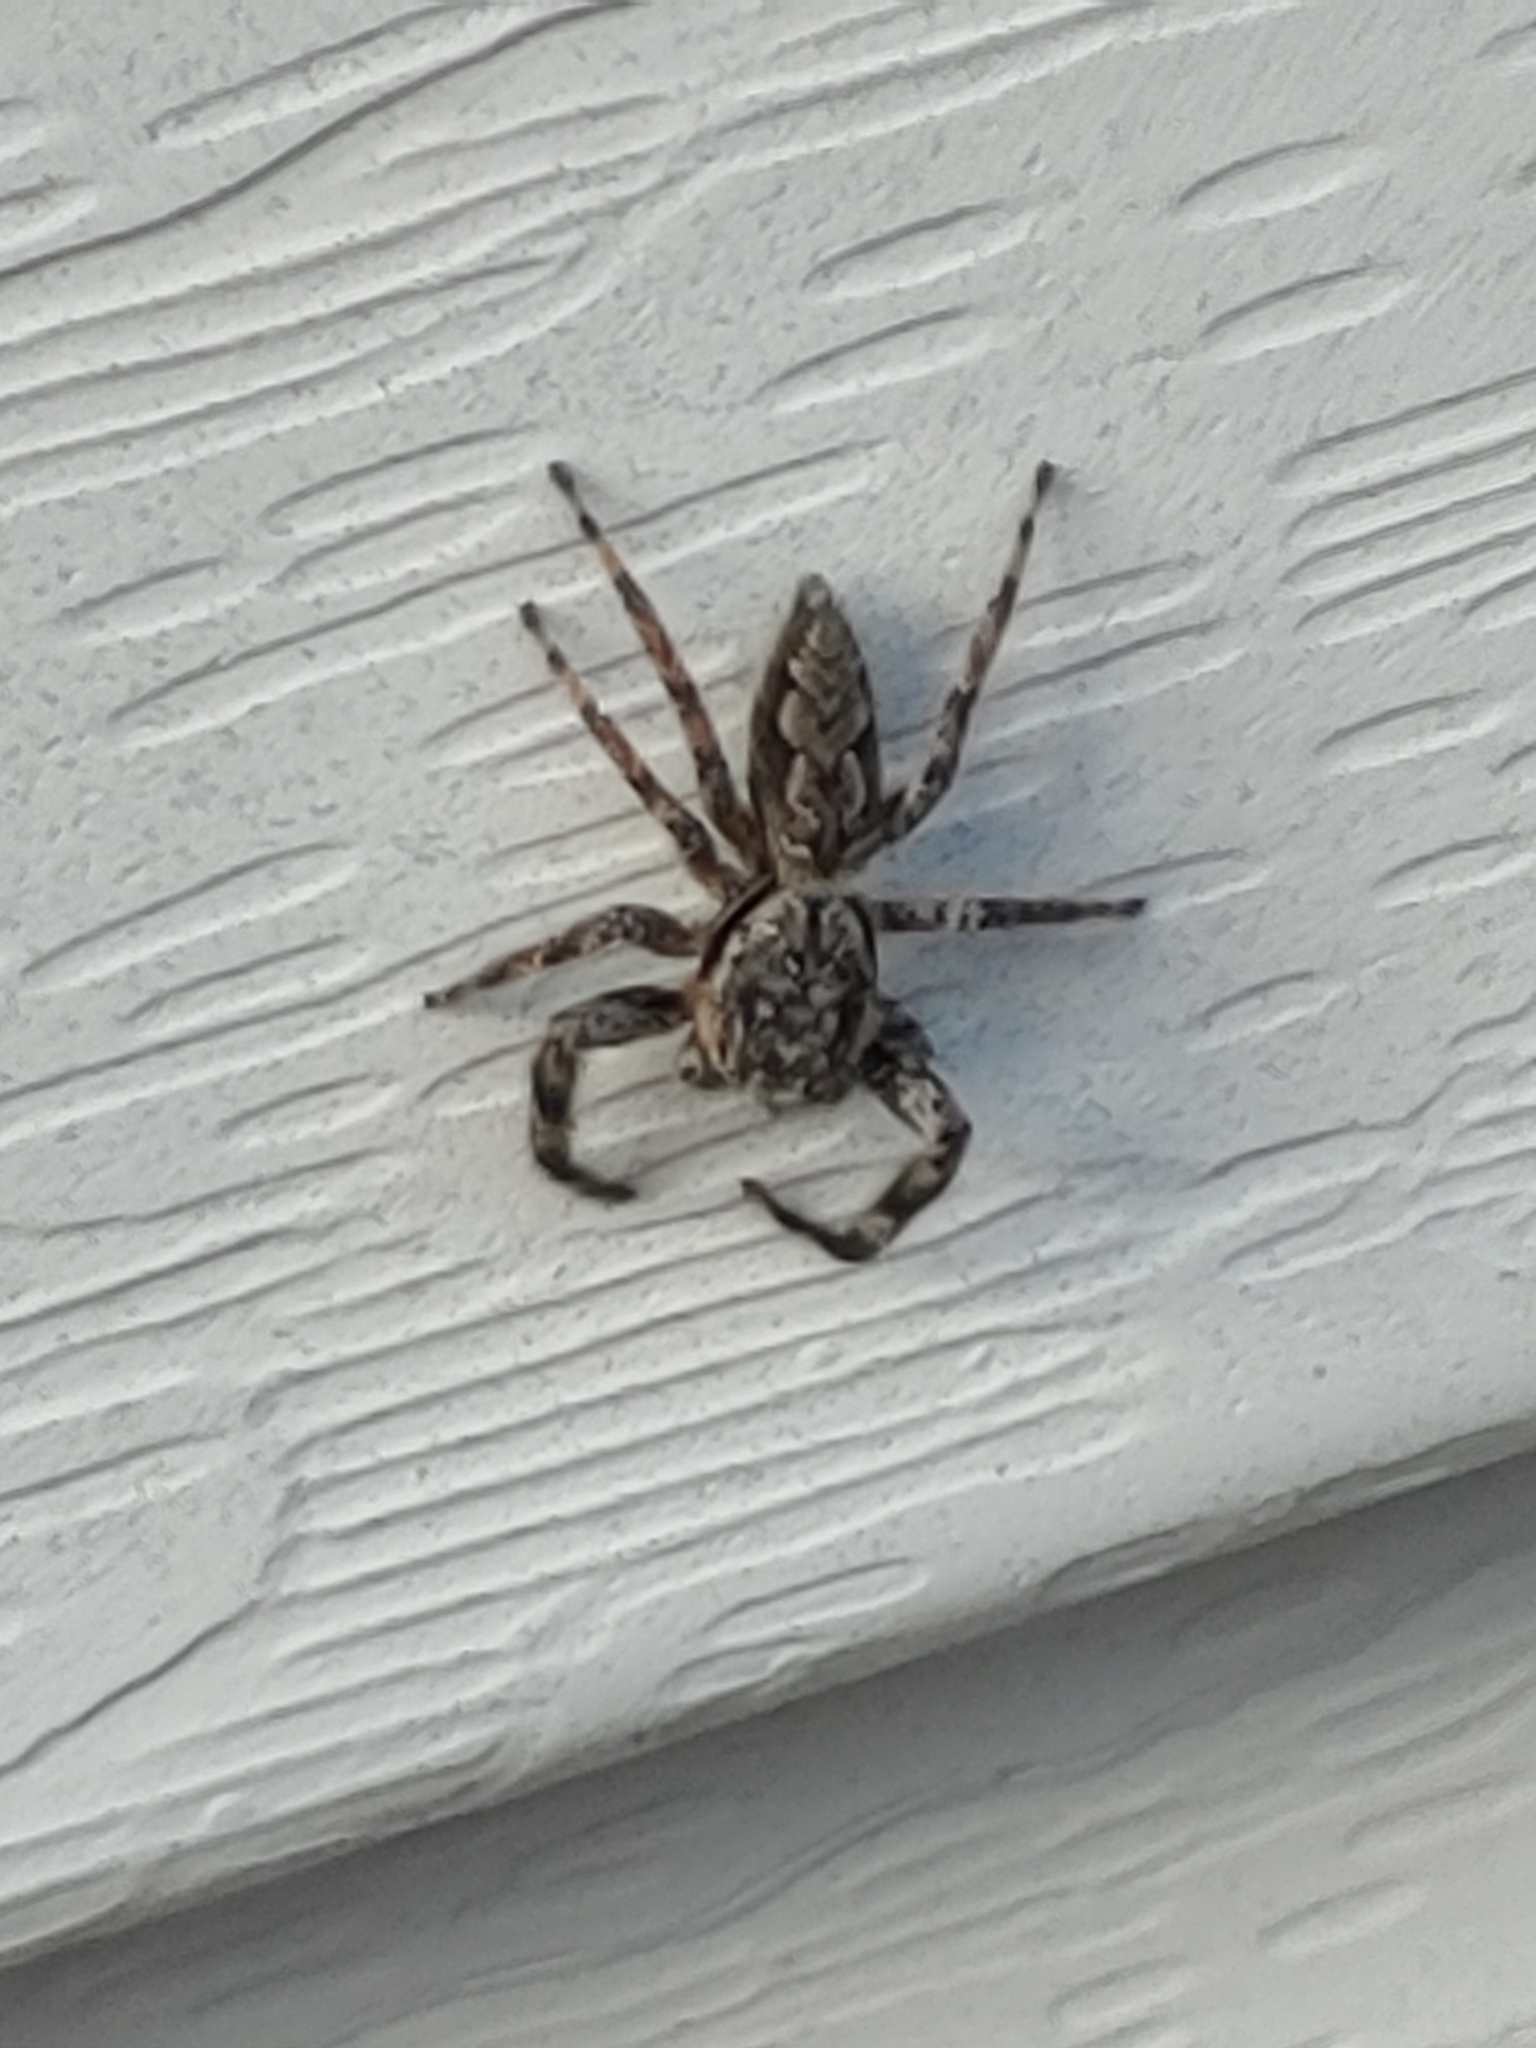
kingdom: Animalia
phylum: Arthropoda
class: Arachnida
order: Araneae
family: Salticidae
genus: Platycryptus
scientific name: Platycryptus undatus
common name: Tan jumping spider
